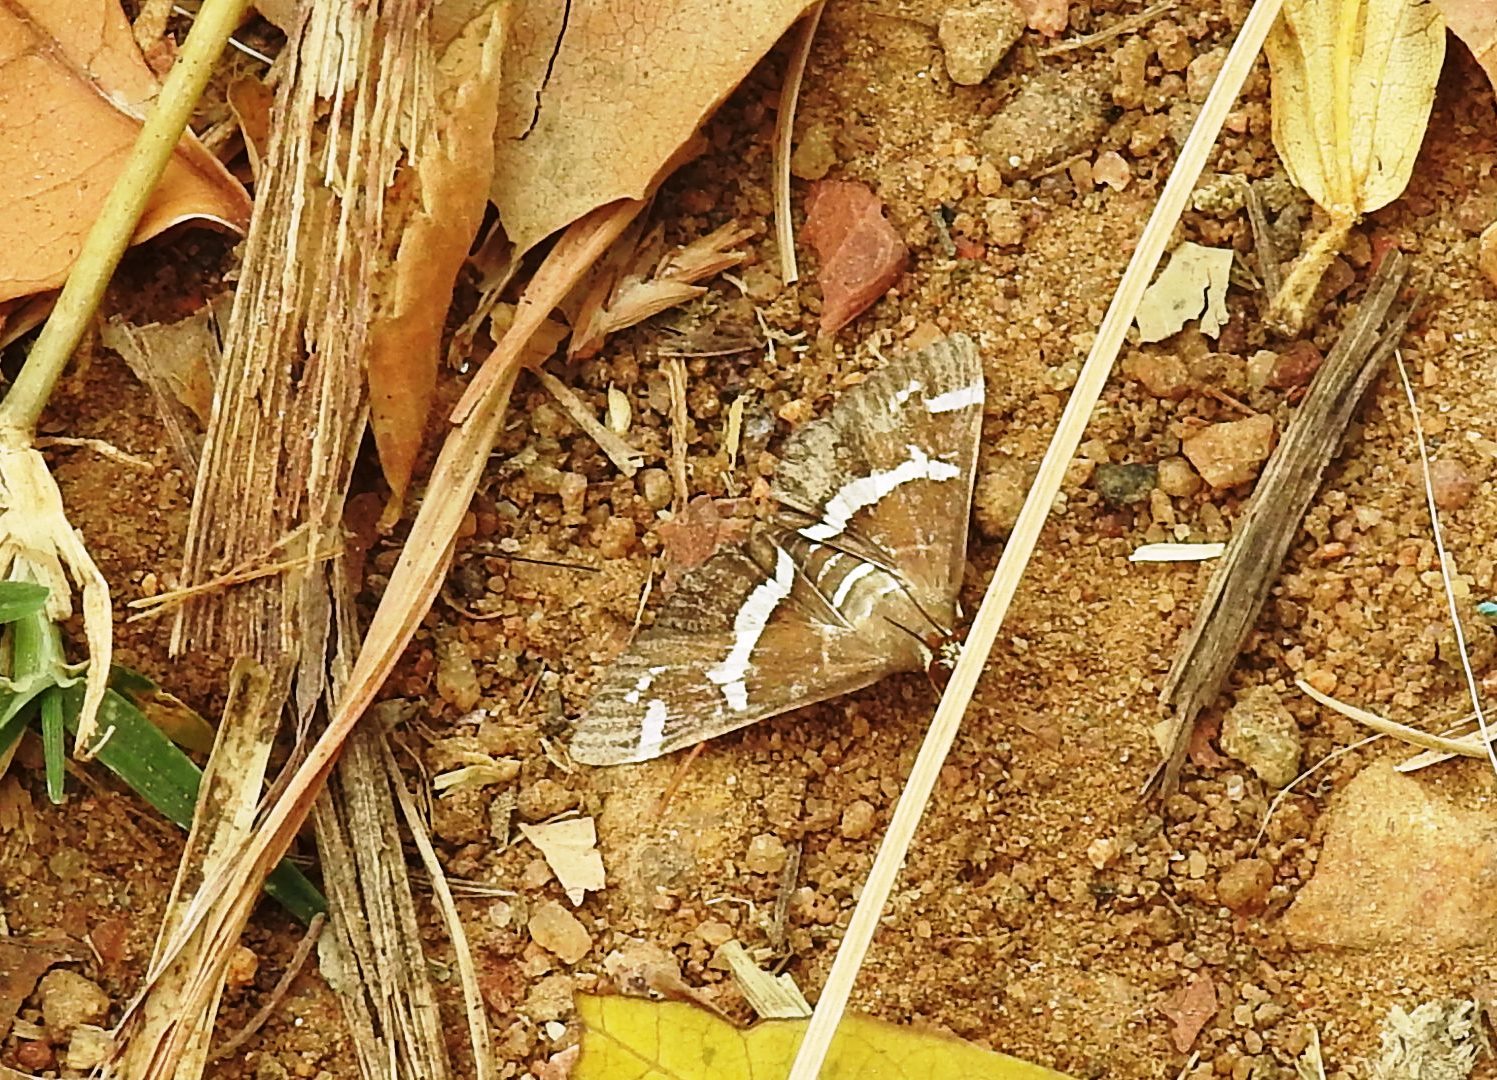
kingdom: Animalia
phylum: Arthropoda
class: Insecta
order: Lepidoptera
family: Crambidae
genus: Spoladea
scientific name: Spoladea recurvalis
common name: Beet webworm moth
